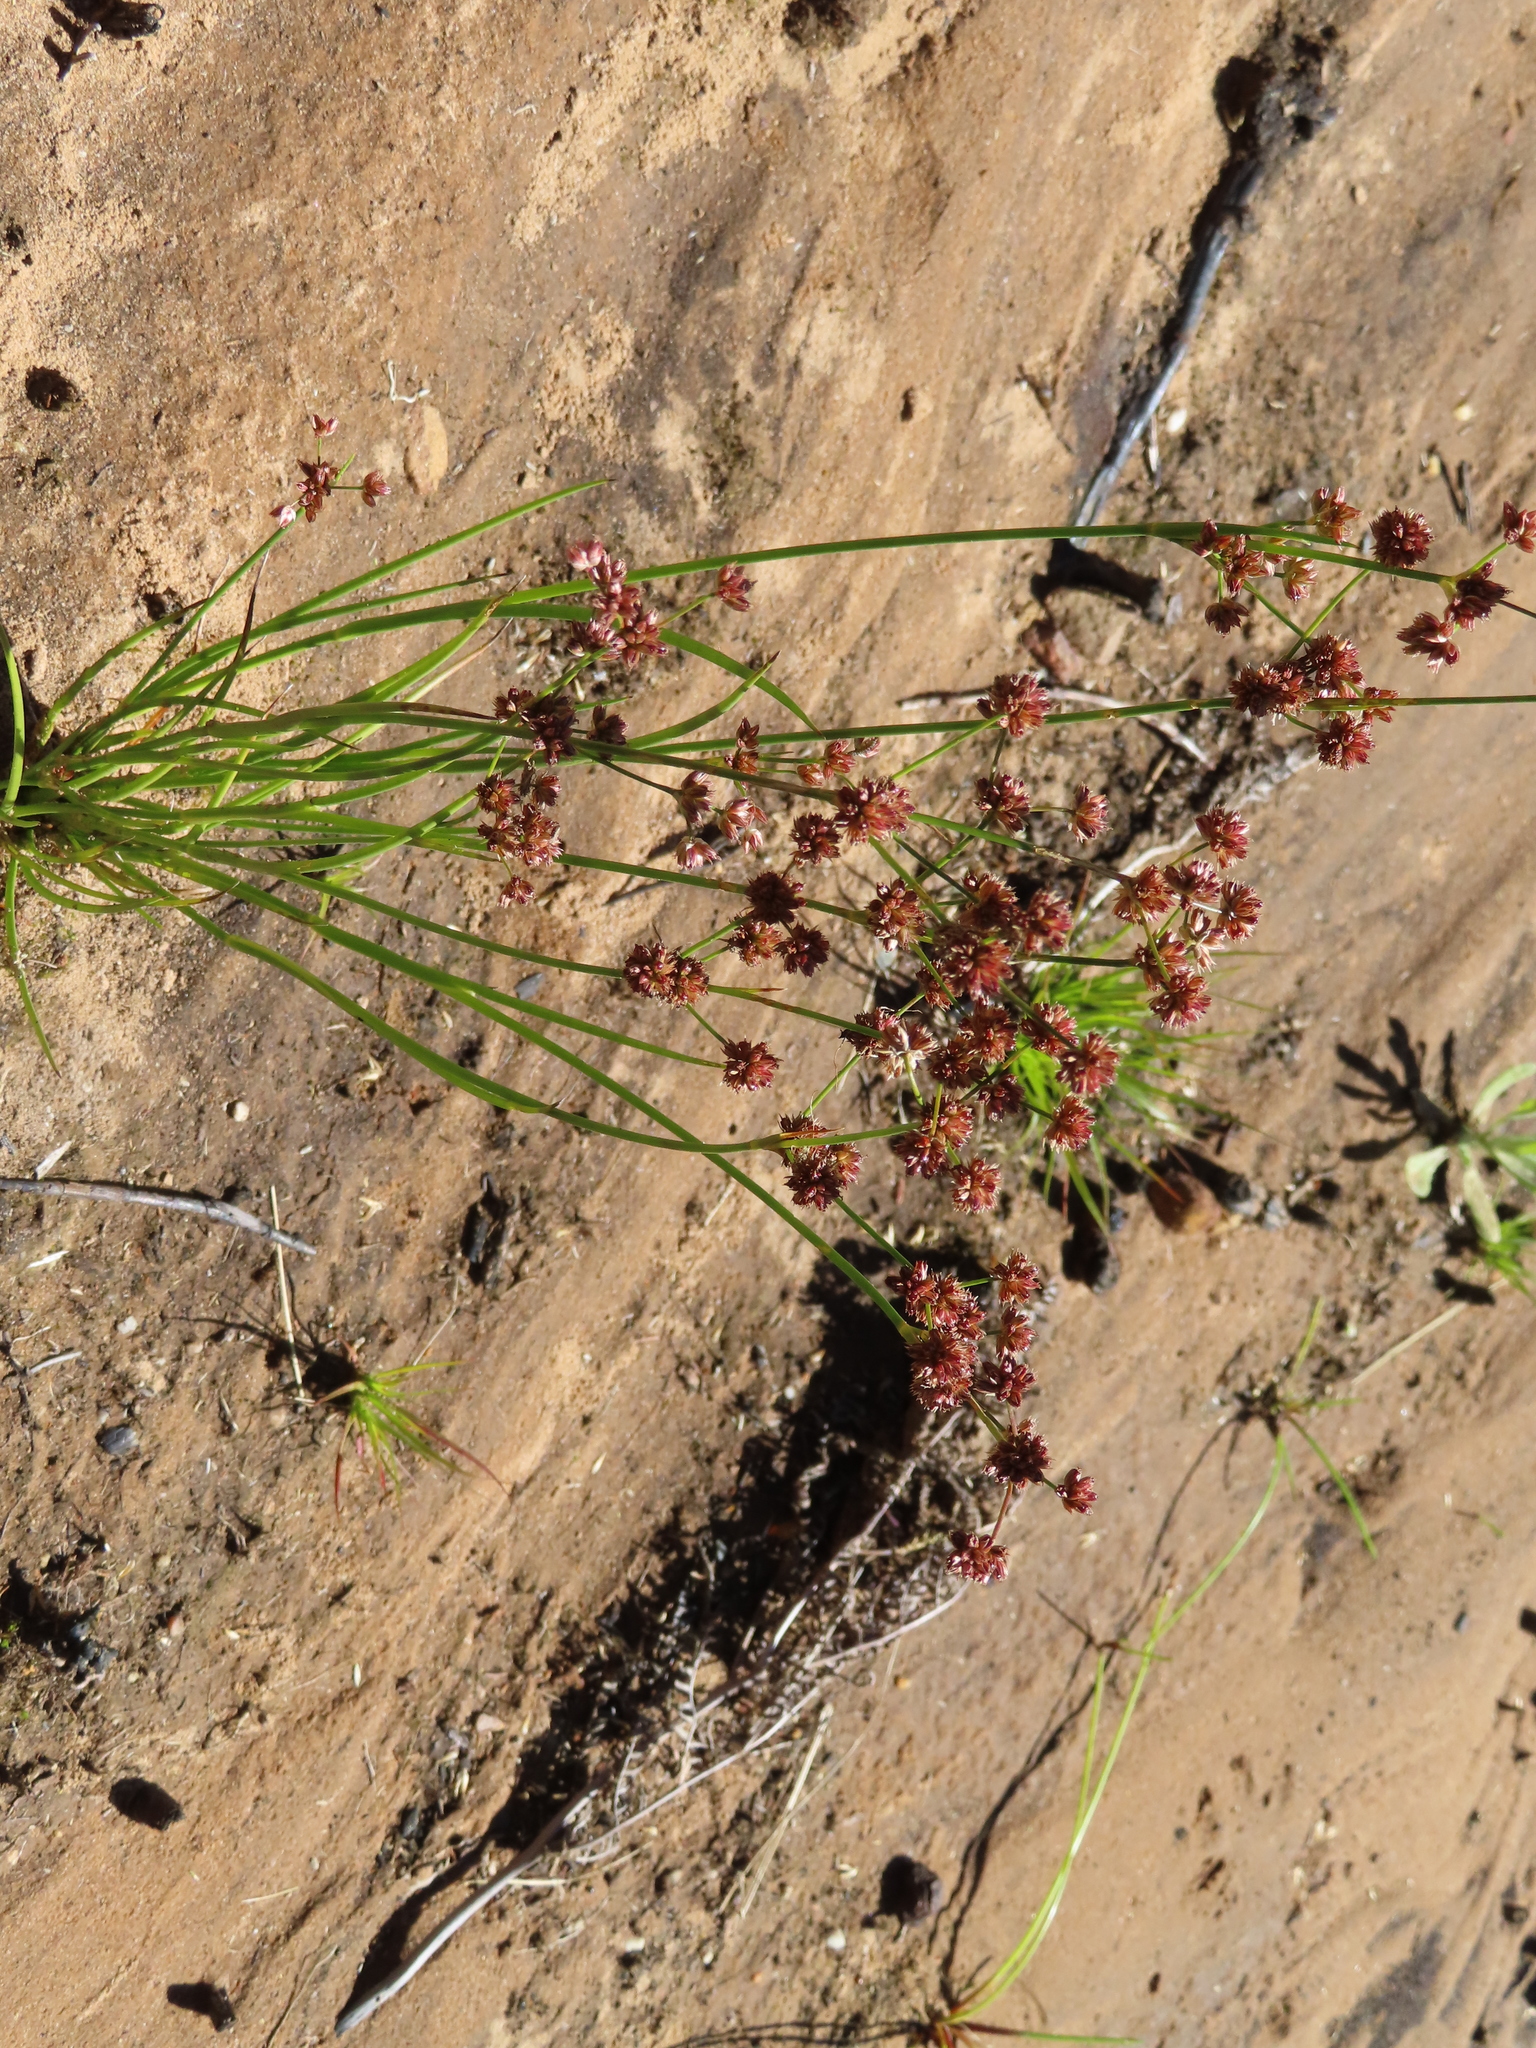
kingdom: Plantae
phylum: Tracheophyta
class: Liliopsida
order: Poales
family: Juncaceae
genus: Juncus
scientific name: Juncus oxycarpus
